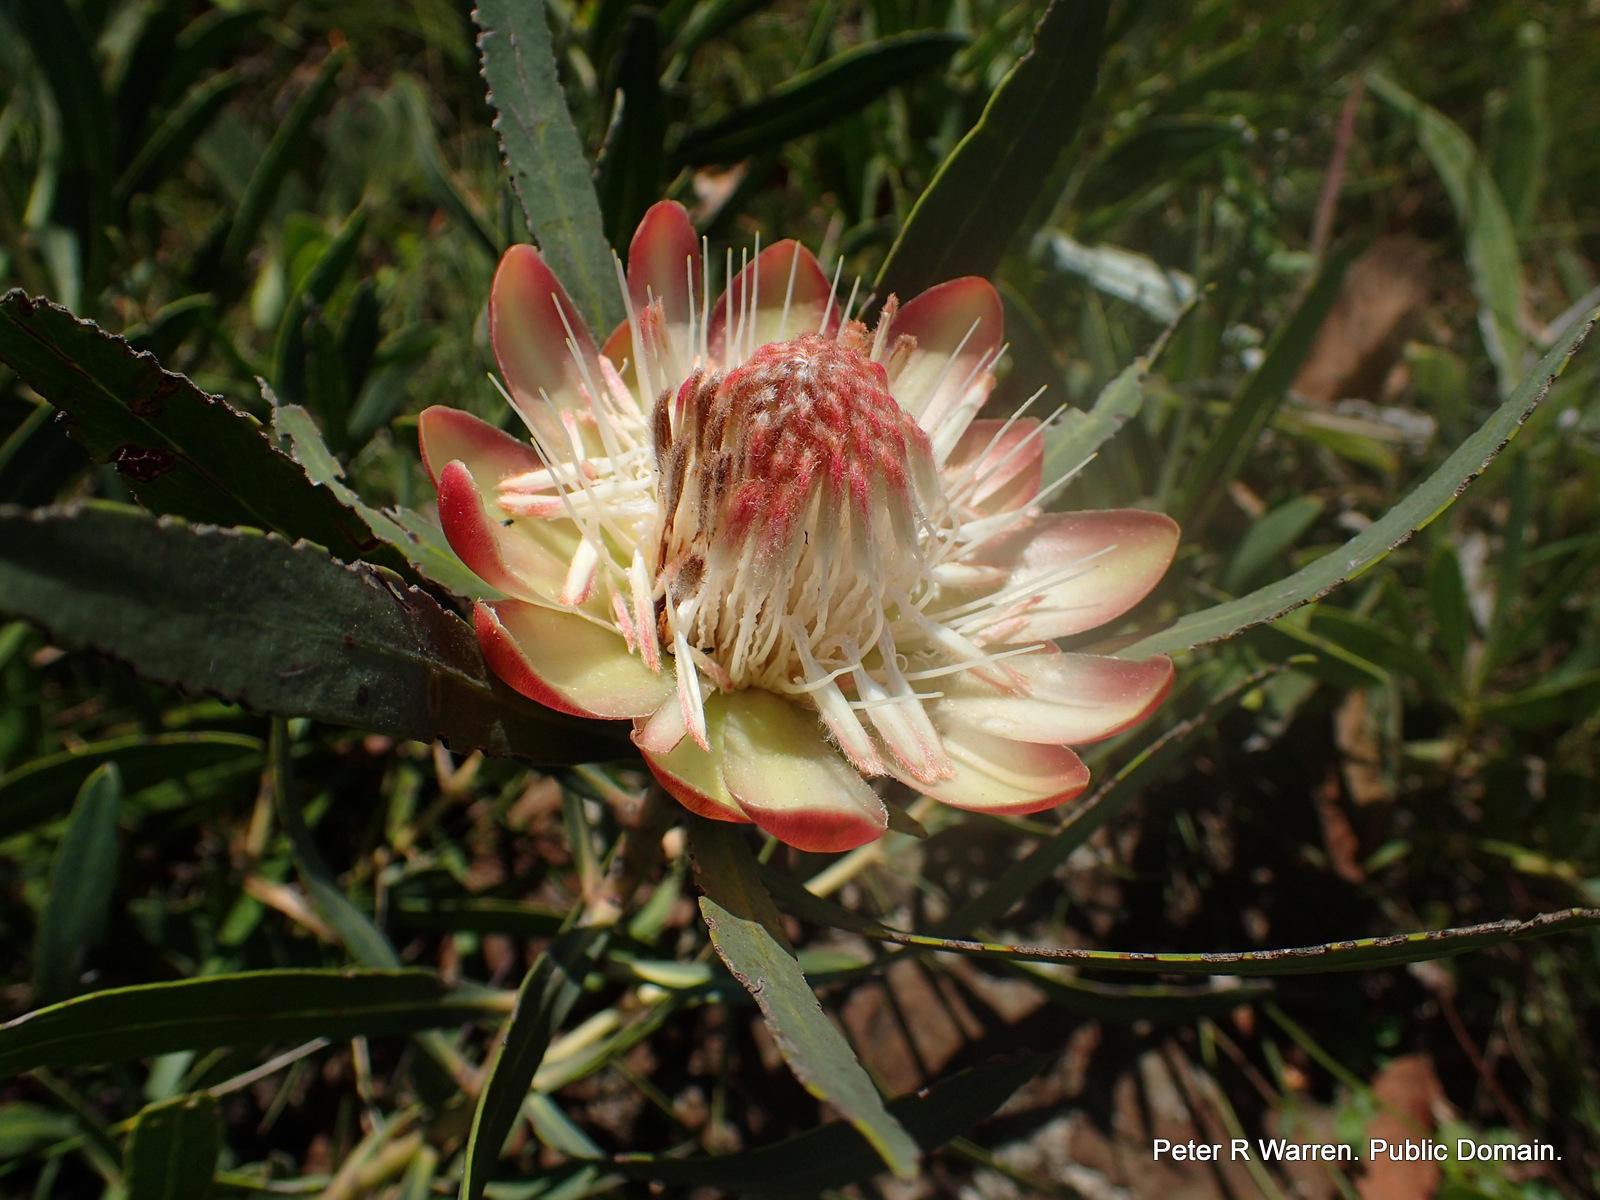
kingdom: Plantae
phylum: Tracheophyta
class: Magnoliopsida
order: Proteales
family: Proteaceae
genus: Protea
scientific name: Protea simplex
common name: Dwarf grassveld sugarbush
